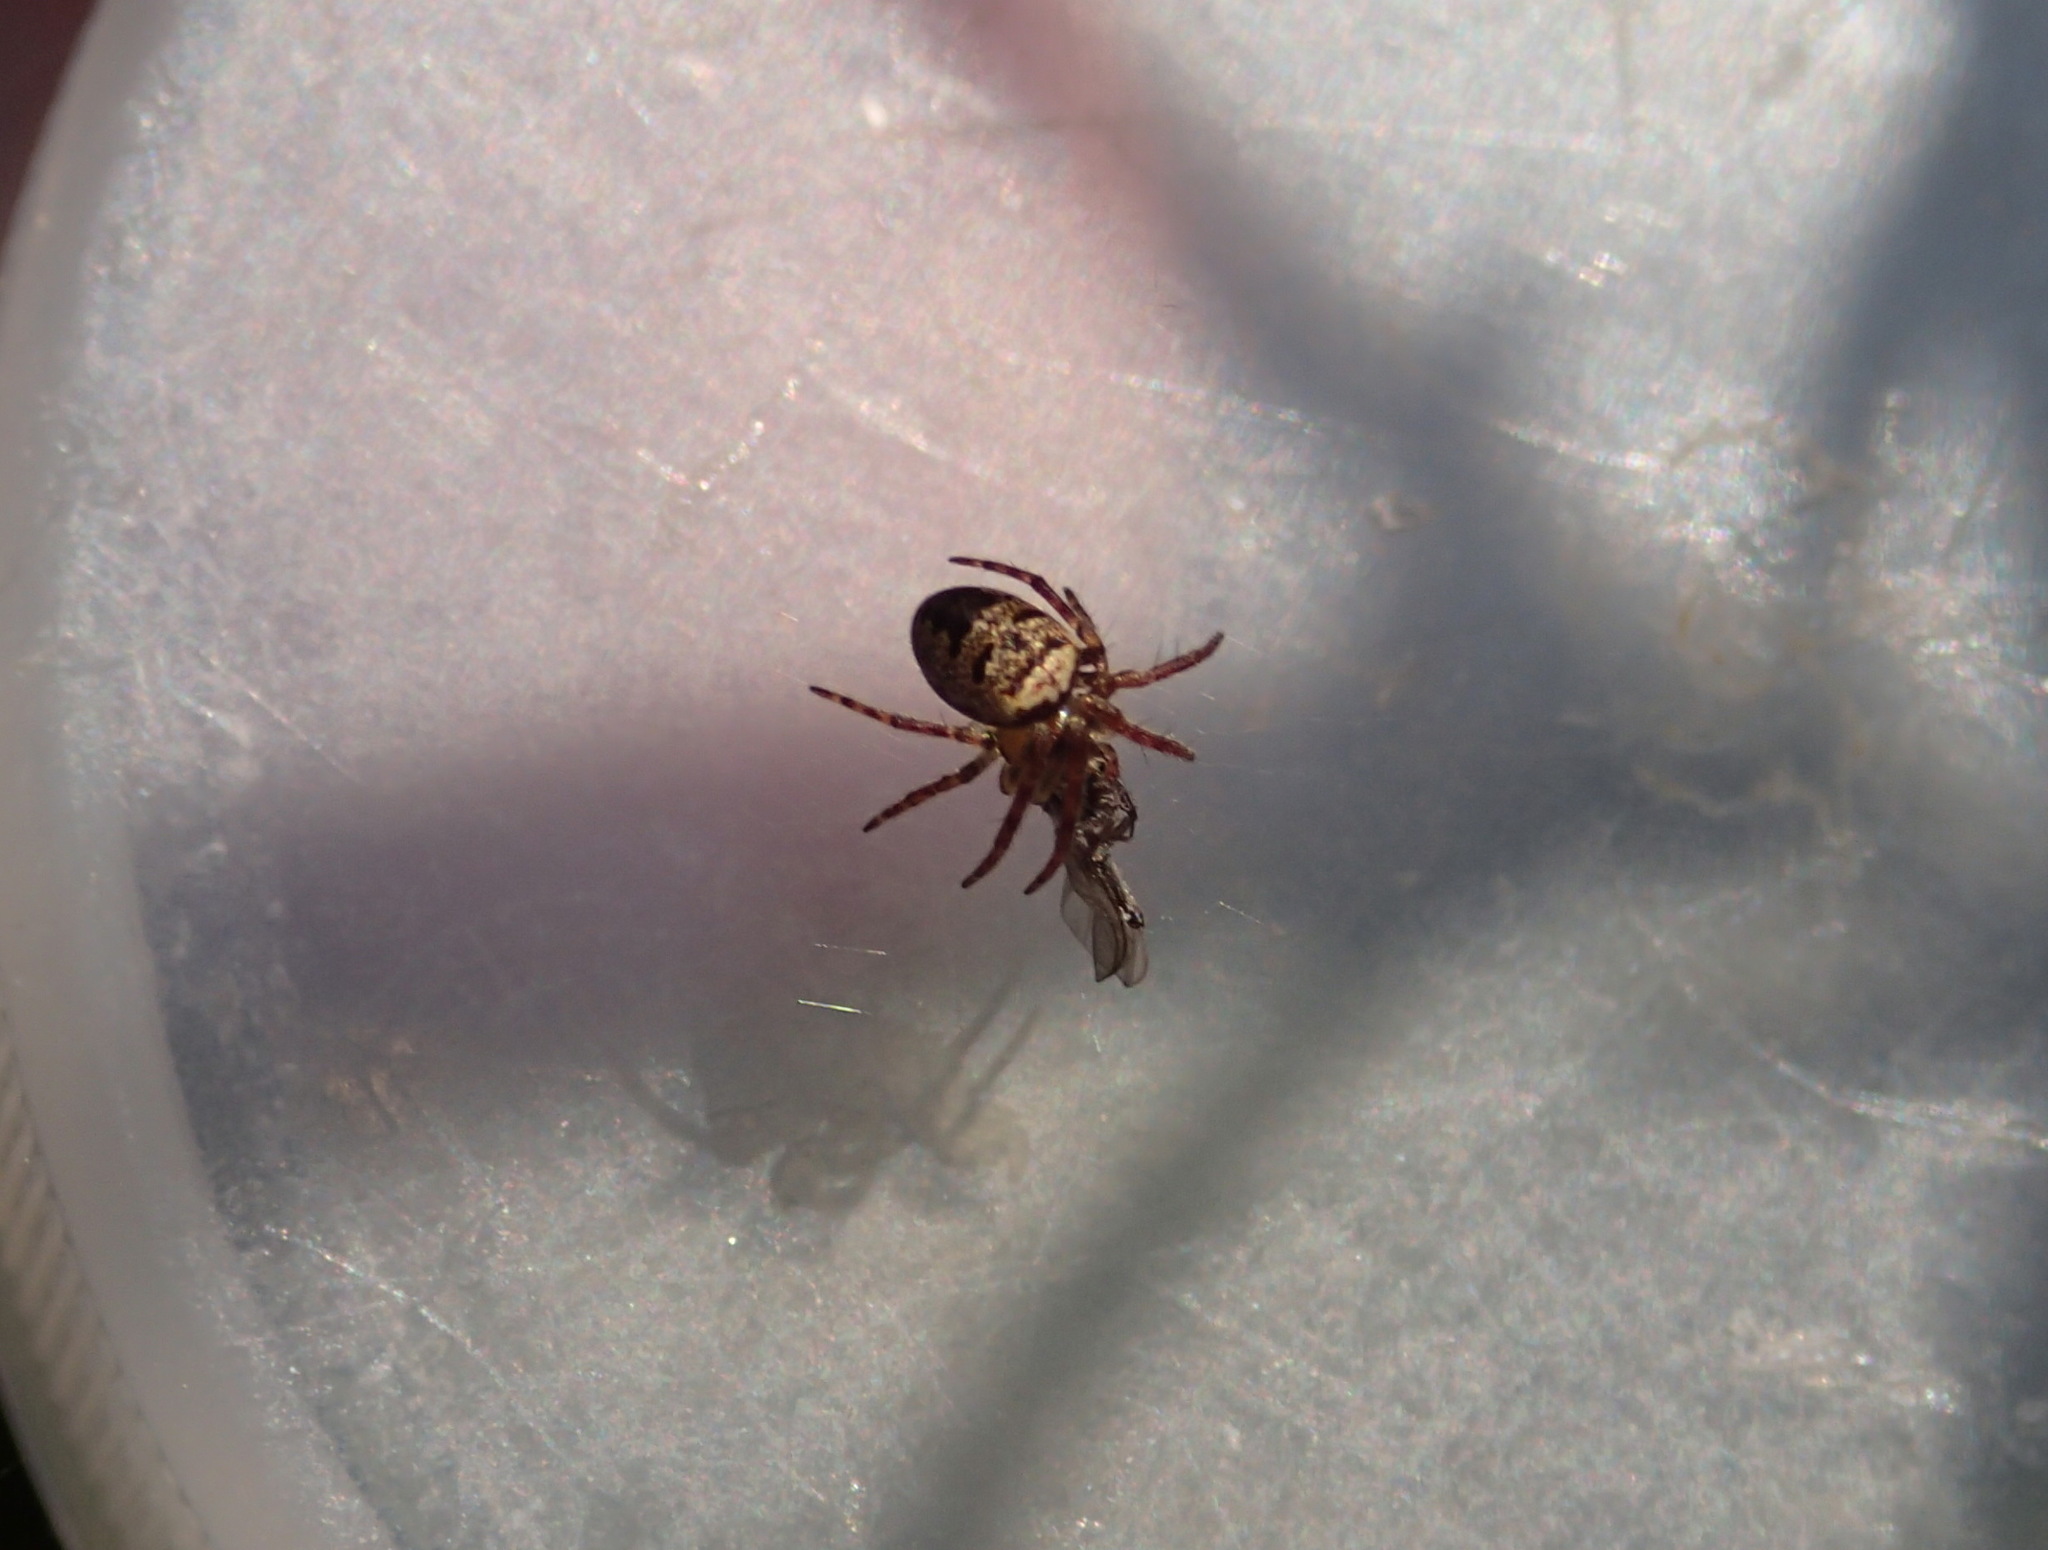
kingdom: Animalia
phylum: Arthropoda
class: Arachnida
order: Araneae
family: Araneidae
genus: Zilla
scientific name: Zilla diodia
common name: Zilla diodia
